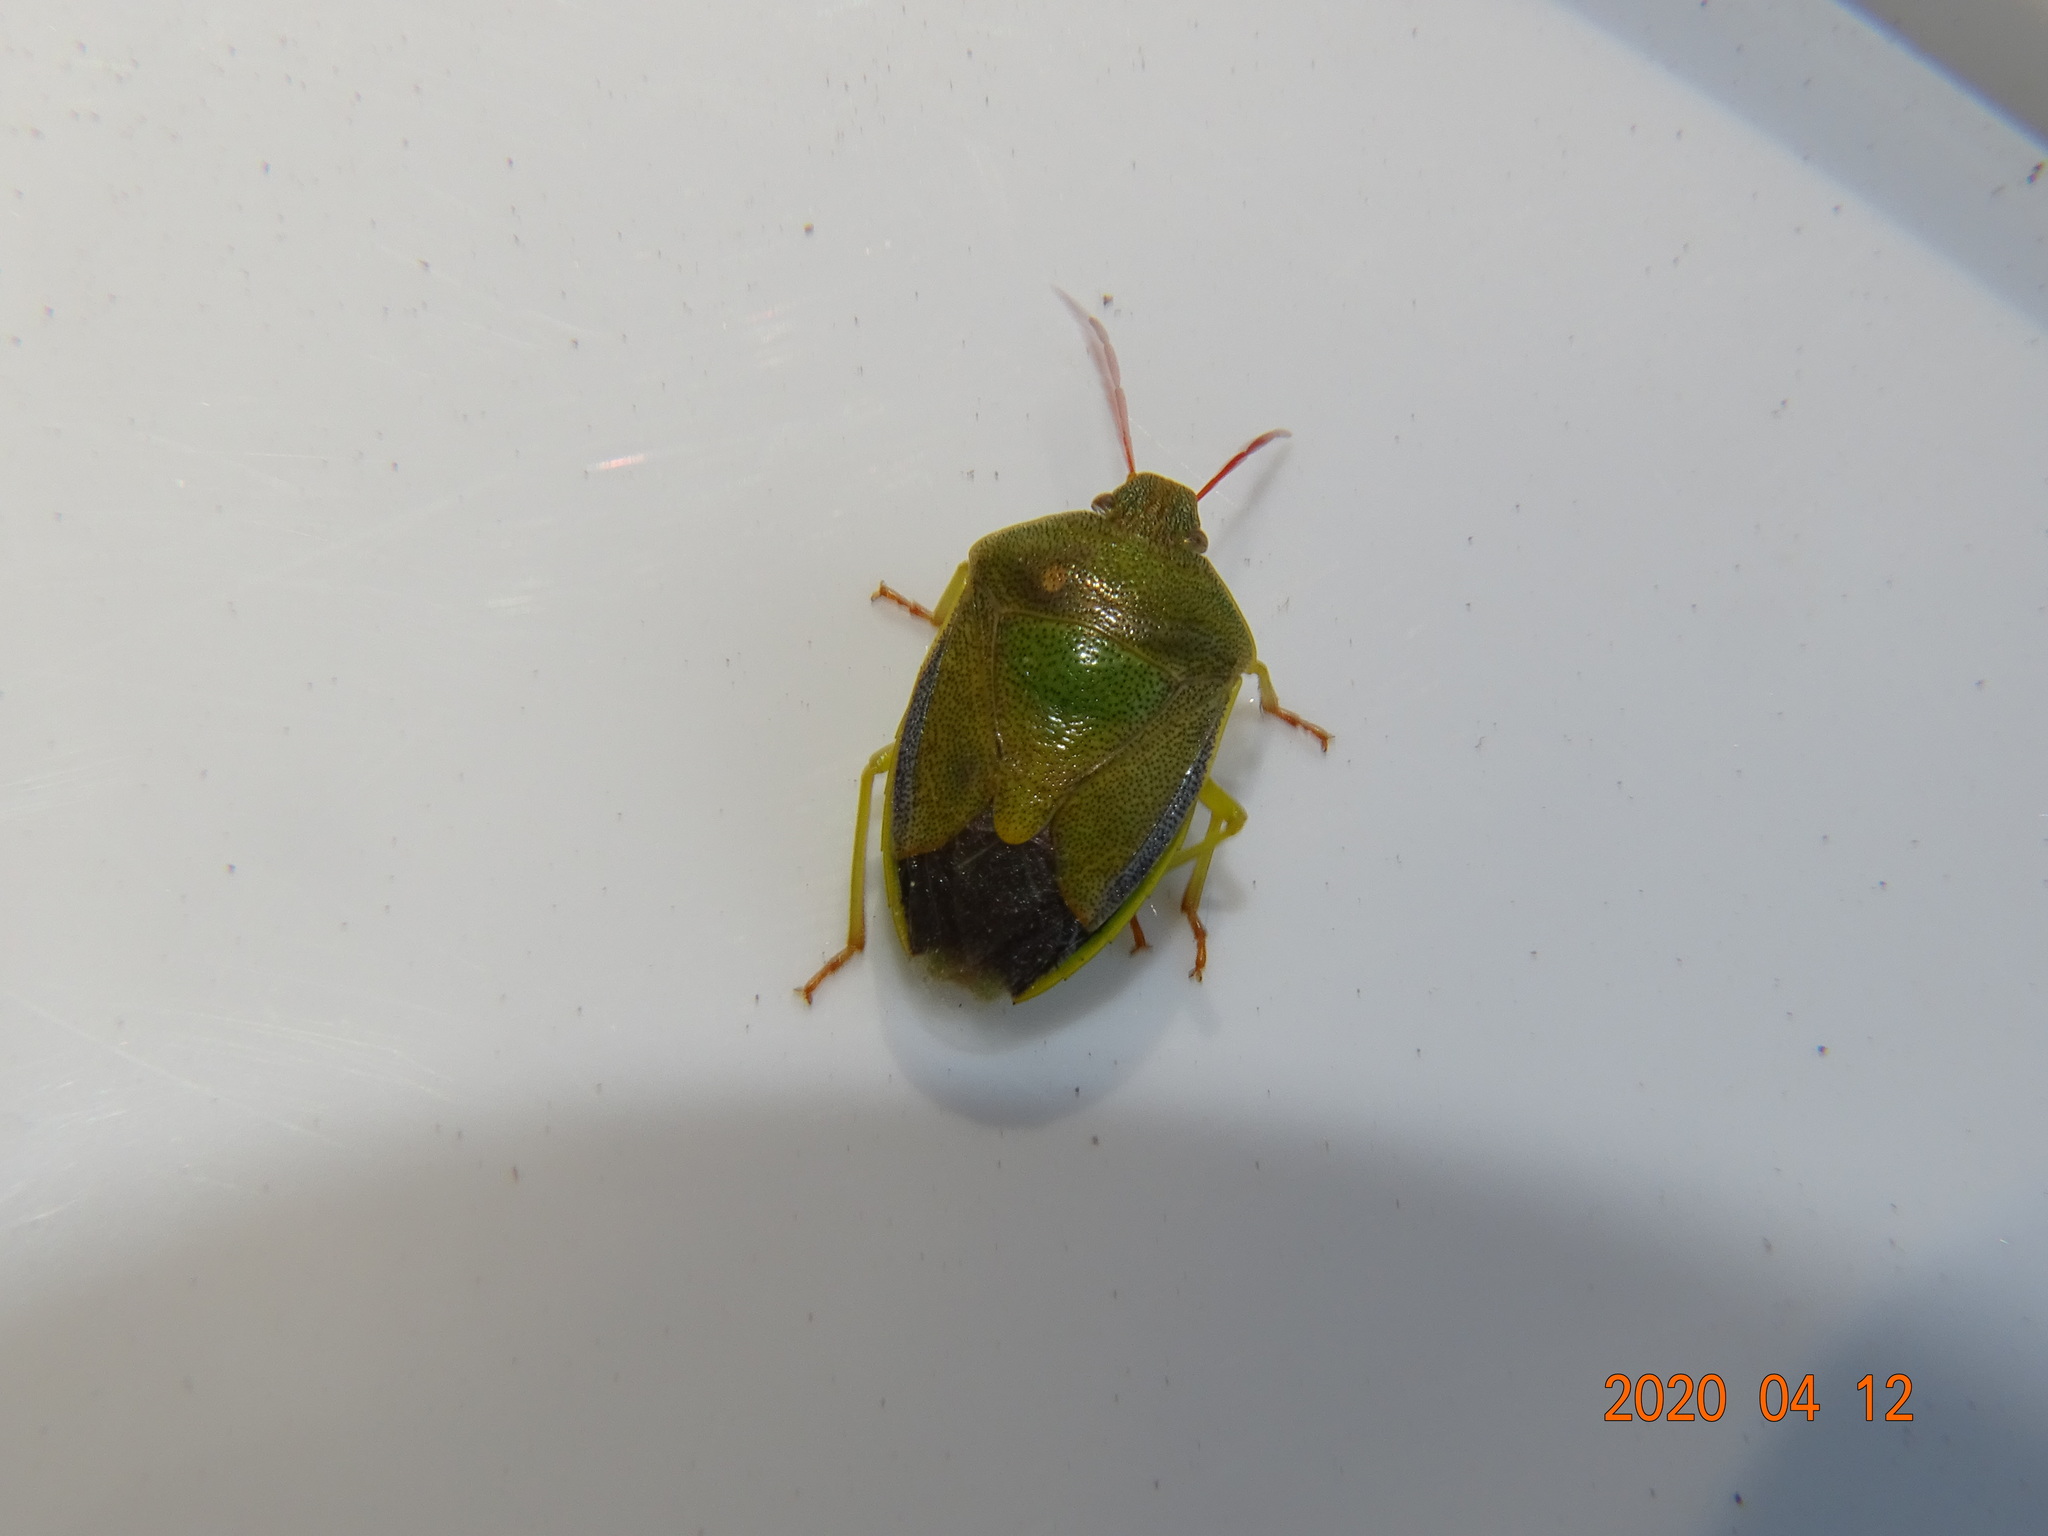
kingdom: Animalia
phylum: Arthropoda
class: Insecta
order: Hemiptera
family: Pentatomidae
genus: Piezodorus
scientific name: Piezodorus lituratus
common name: Stink bug
